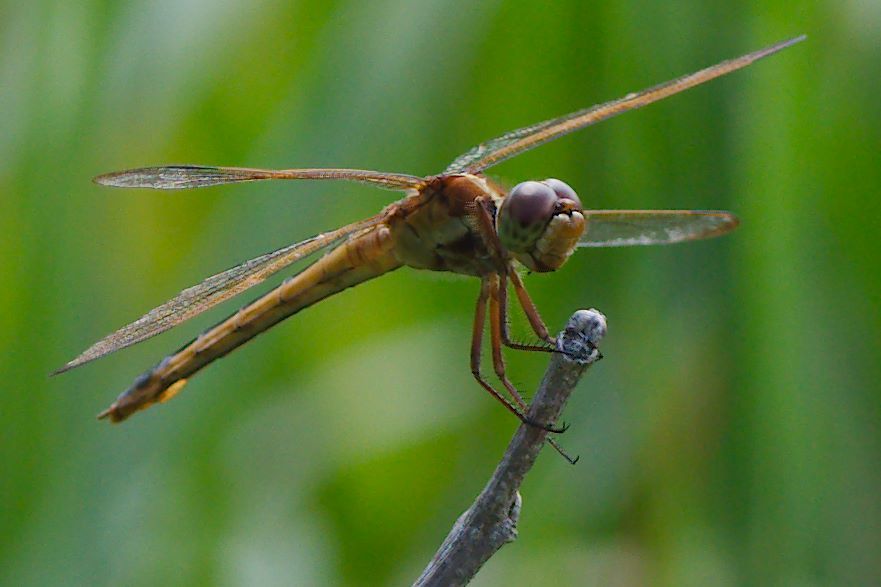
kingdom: Animalia
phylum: Arthropoda
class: Insecta
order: Odonata
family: Libellulidae
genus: Libellula
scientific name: Libellula needhami
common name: Needham's skimmer
